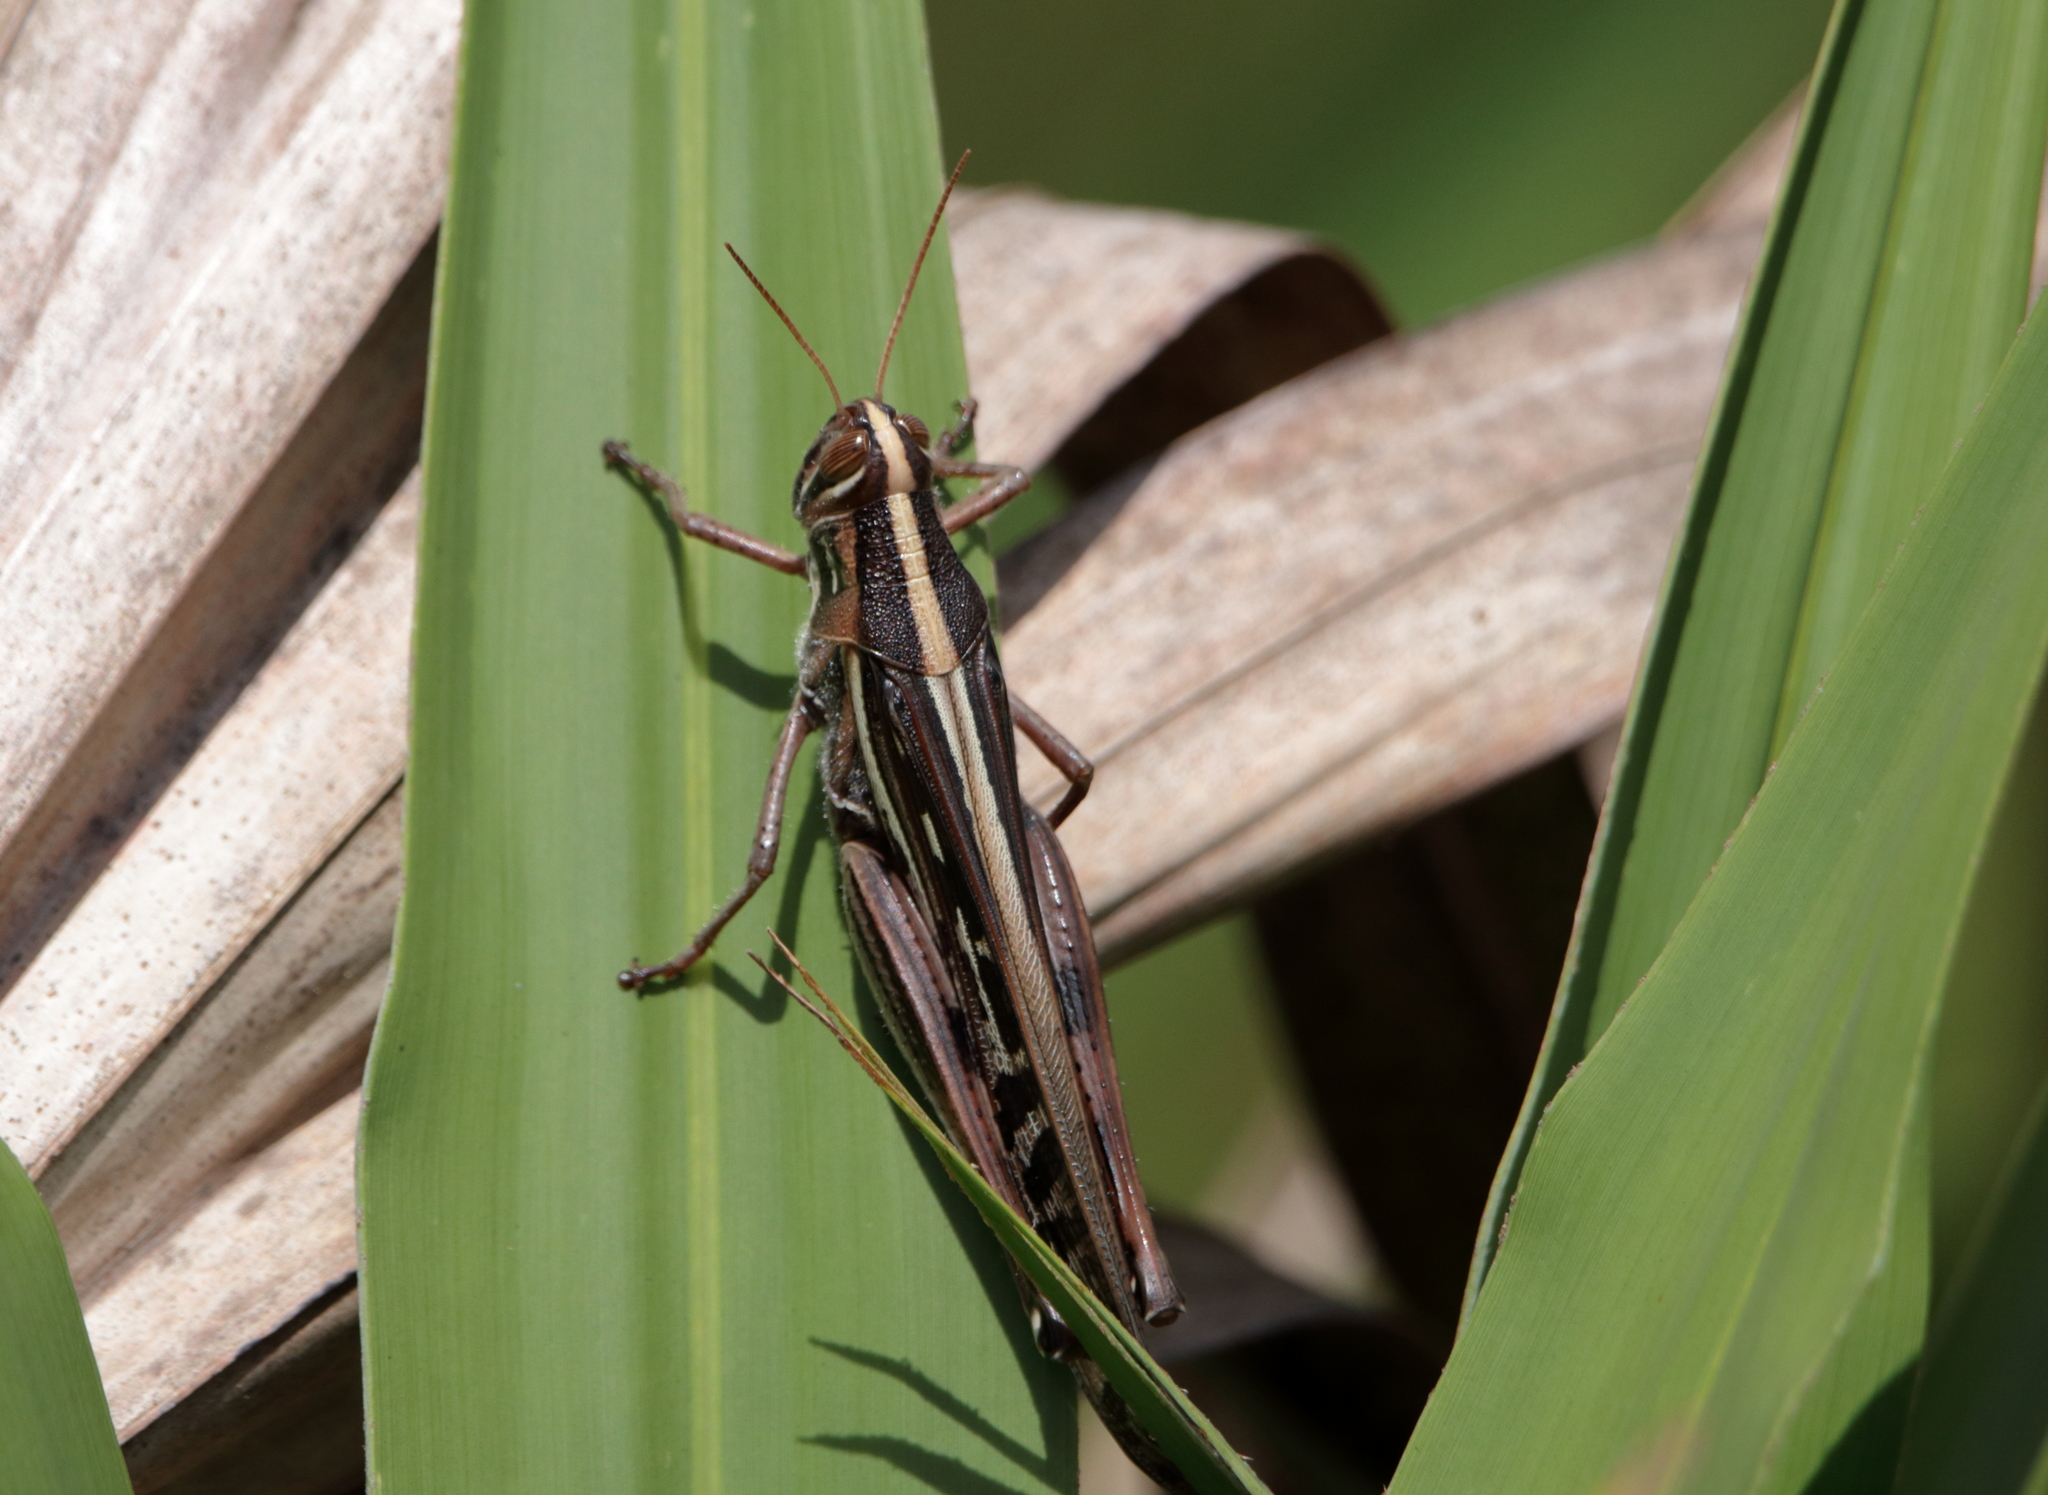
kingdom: Animalia
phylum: Arthropoda
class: Insecta
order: Orthoptera
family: Acrididae
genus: Schistocerca
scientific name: Schistocerca americana
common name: American bird locust
